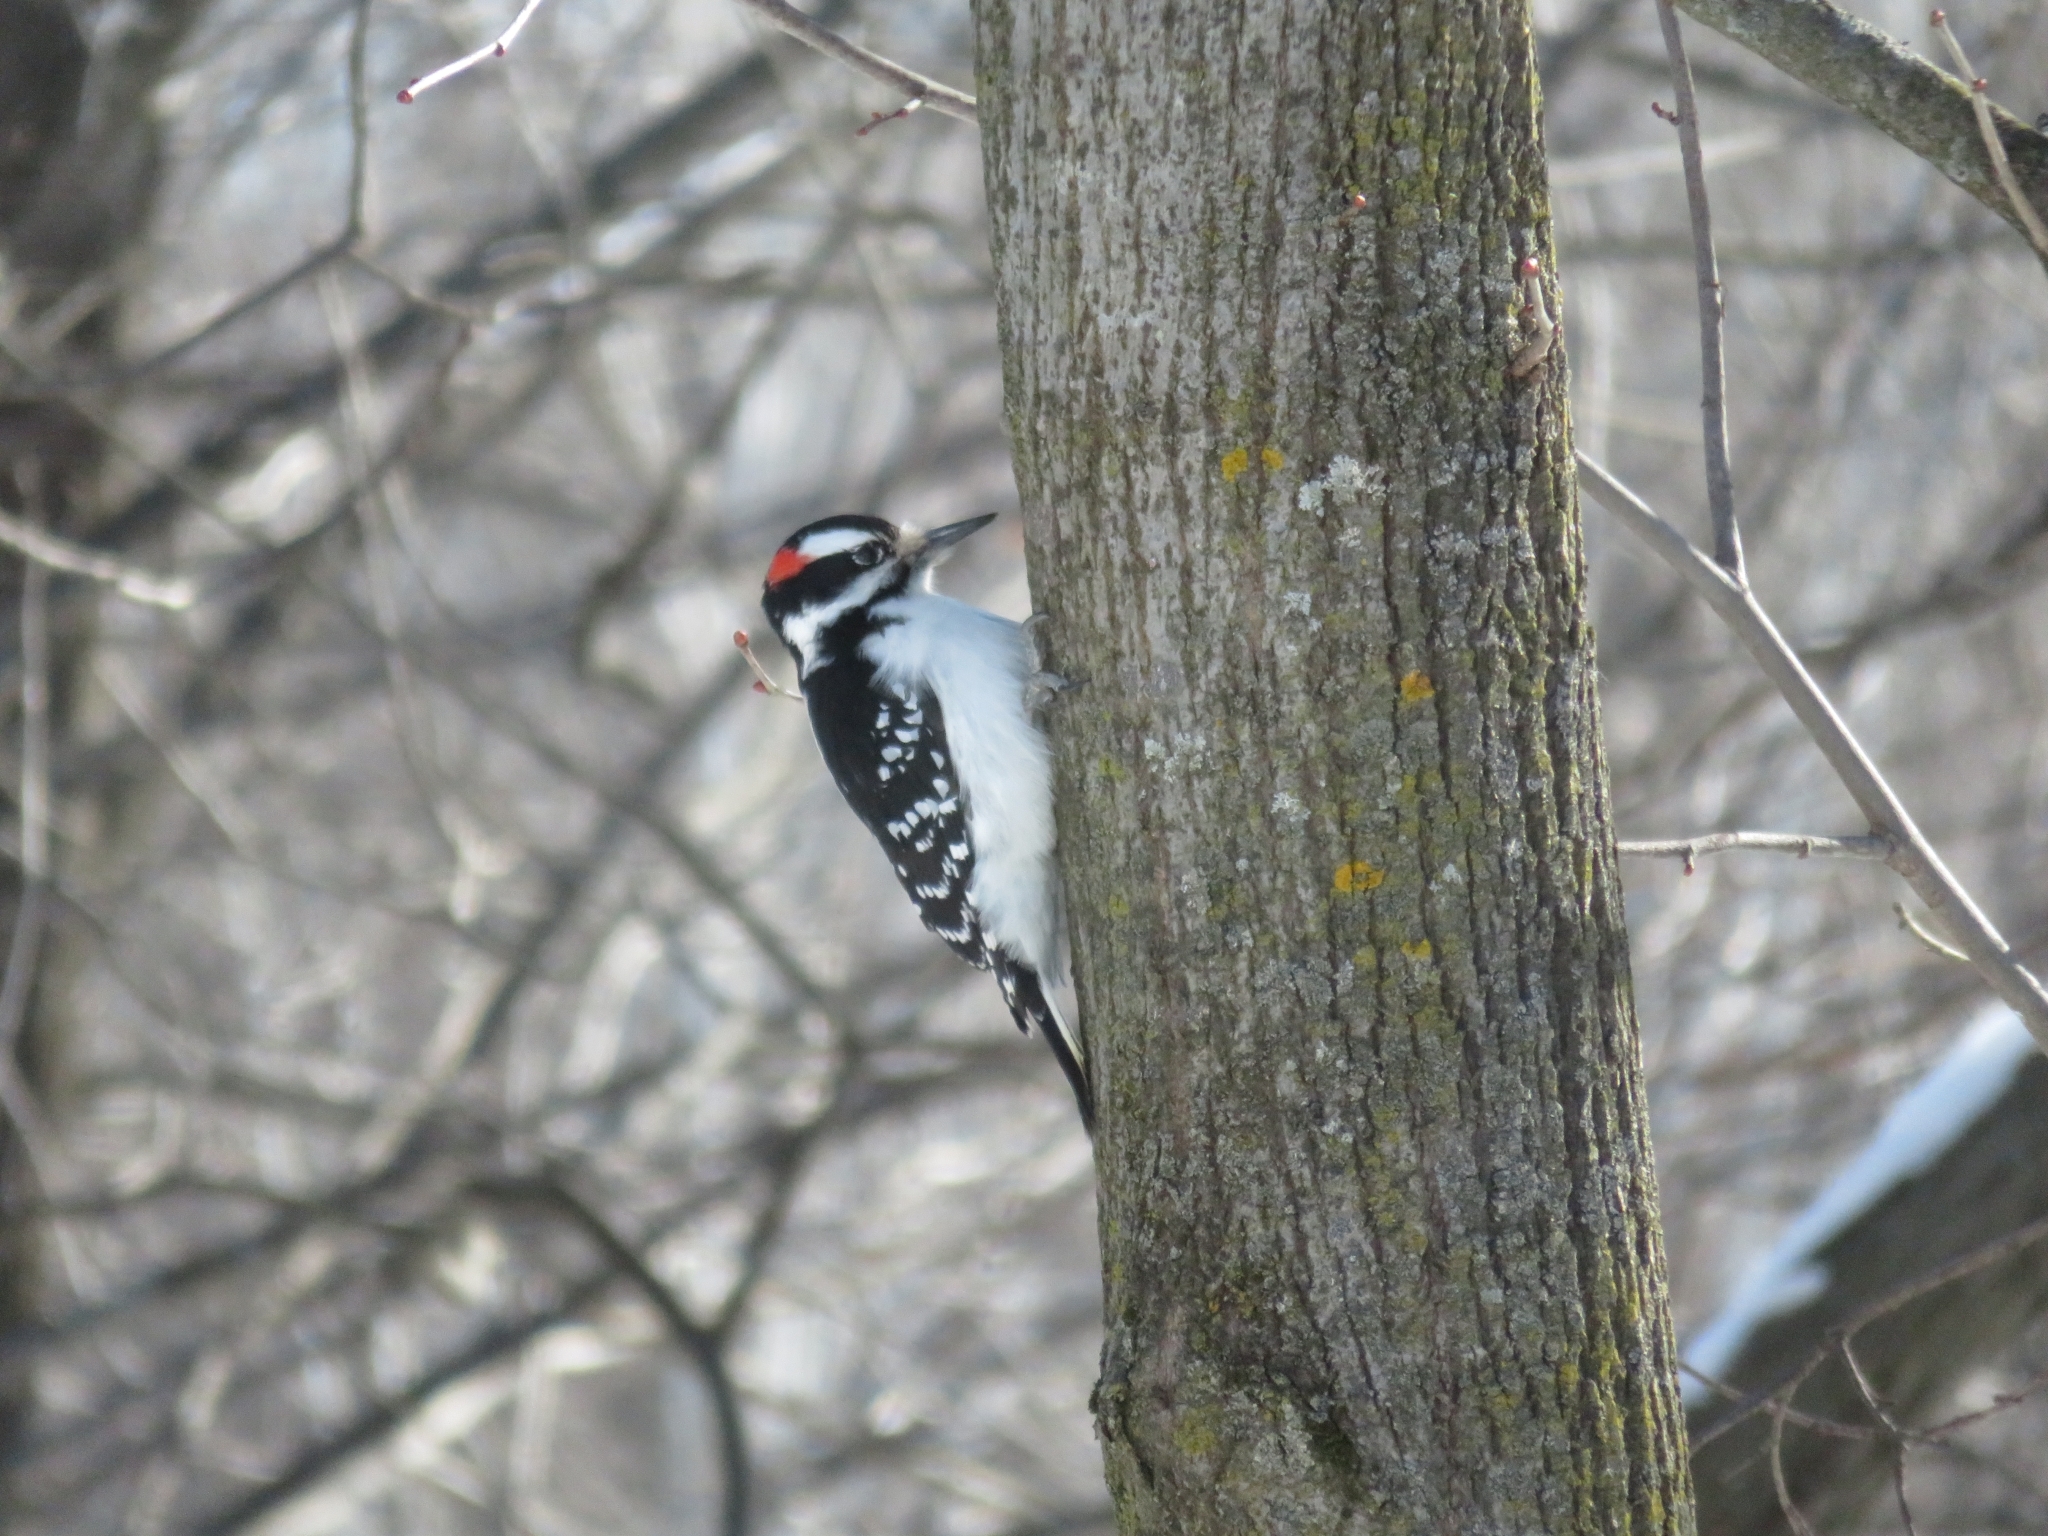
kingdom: Animalia
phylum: Chordata
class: Aves
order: Piciformes
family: Picidae
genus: Leuconotopicus
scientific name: Leuconotopicus villosus
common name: Hairy woodpecker
